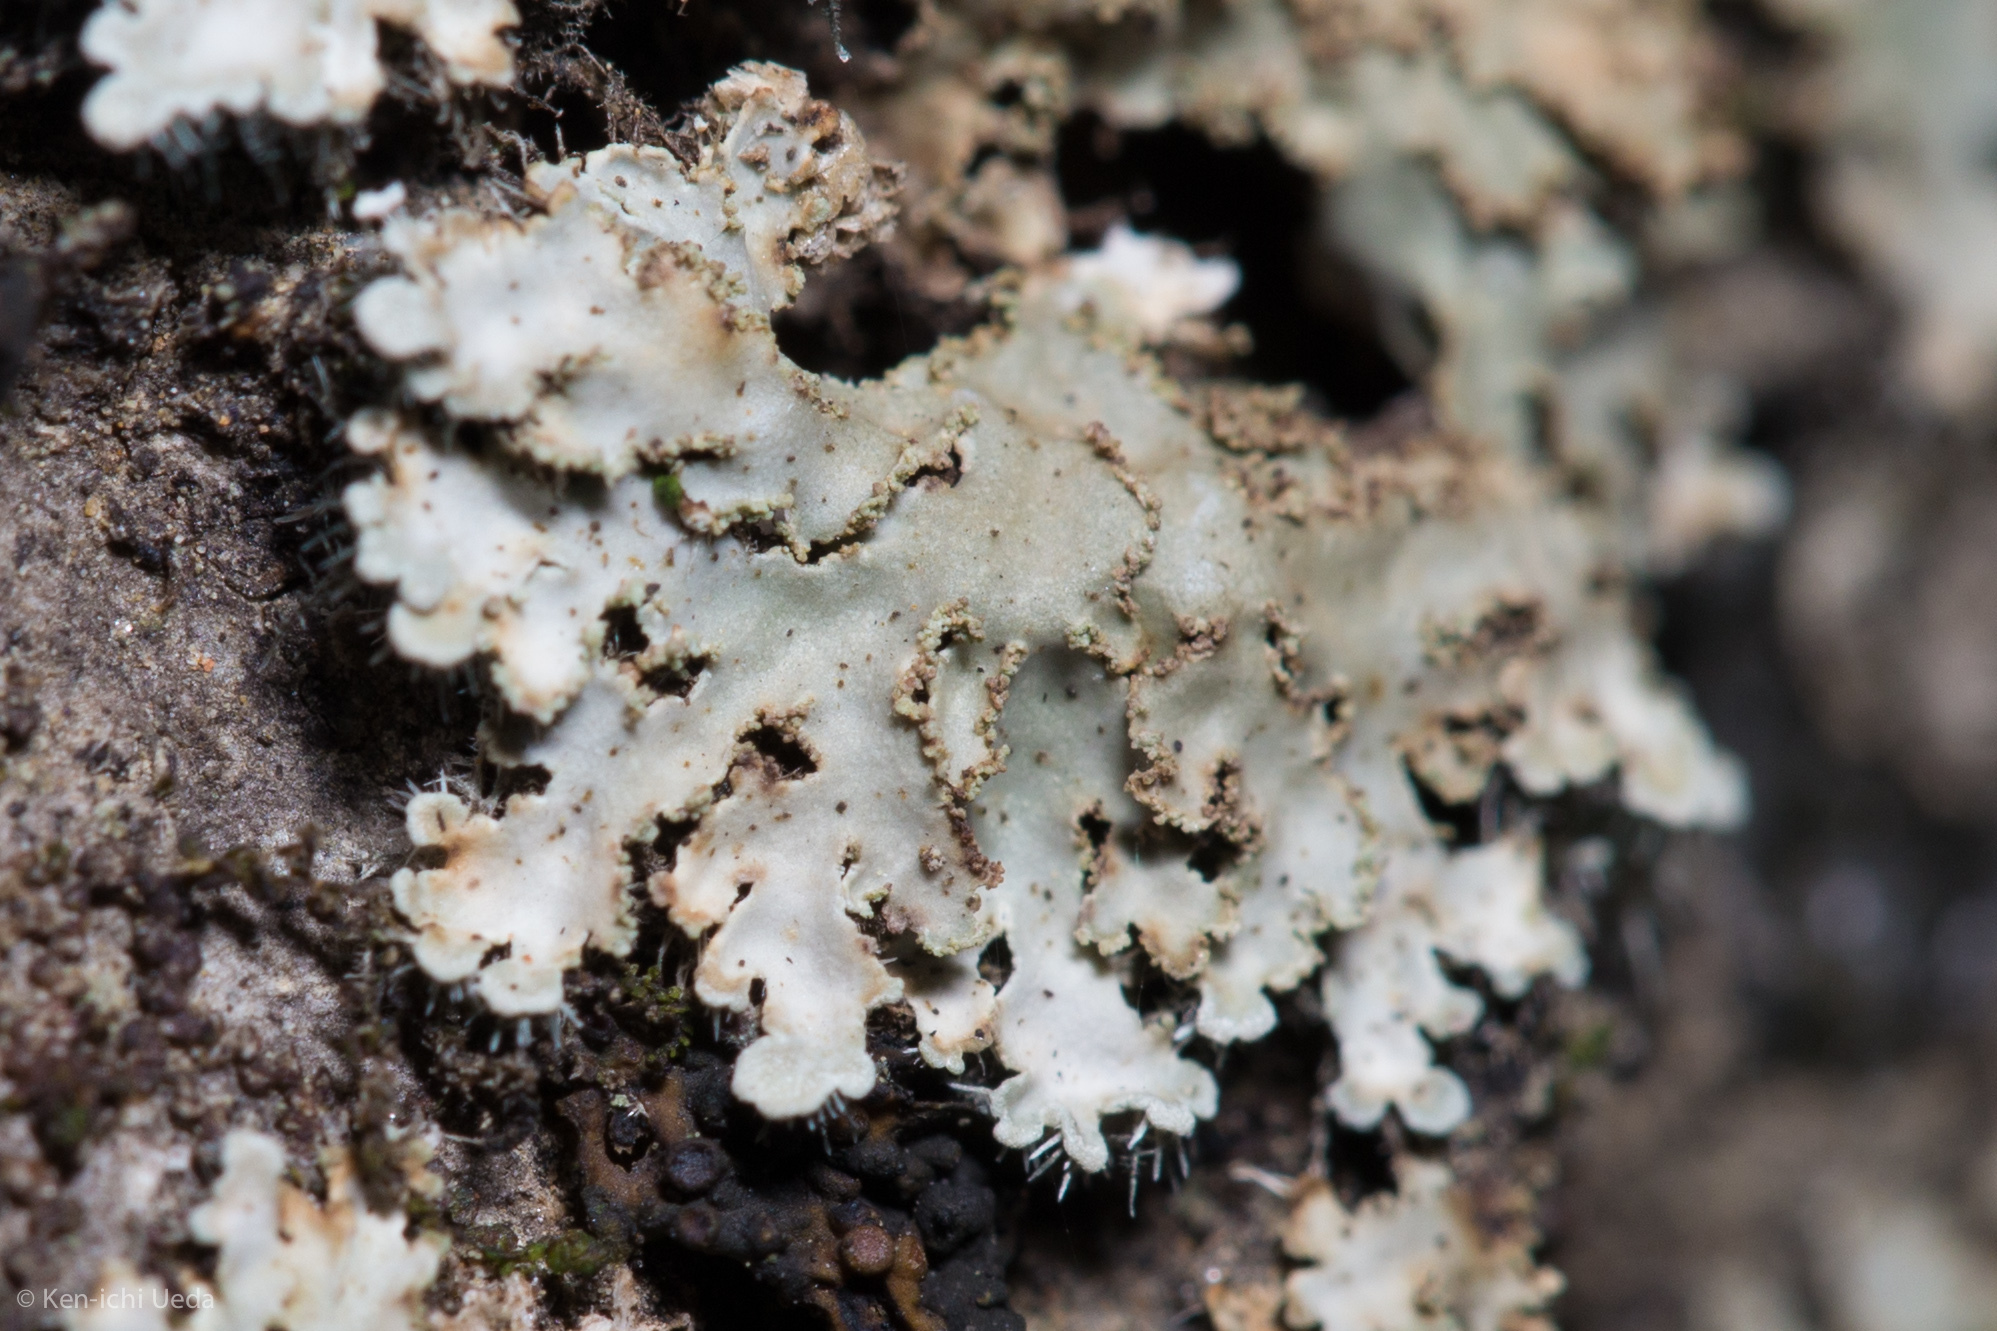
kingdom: Fungi
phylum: Ascomycota
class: Lecanoromycetes
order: Caliciales
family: Physciaceae
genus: Physconia
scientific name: Physconia isidiigera
